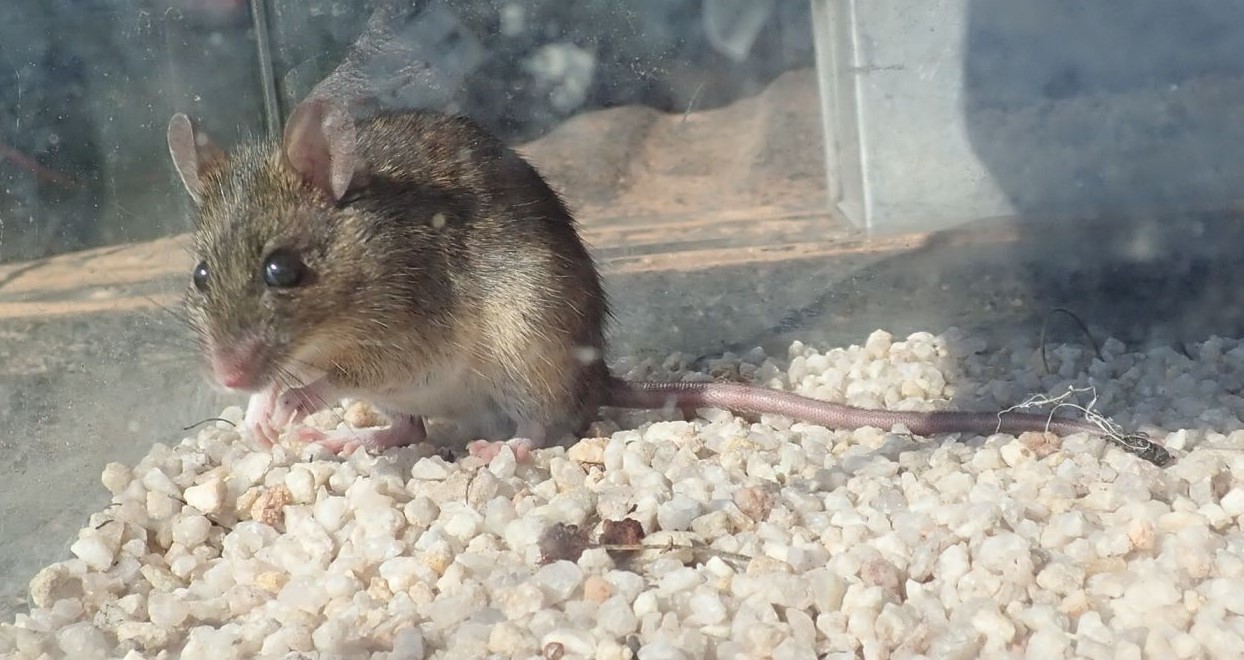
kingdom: Animalia
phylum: Chordata
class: Mammalia
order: Rodentia
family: Muridae
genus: Mus
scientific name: Mus musculus
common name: House mouse
